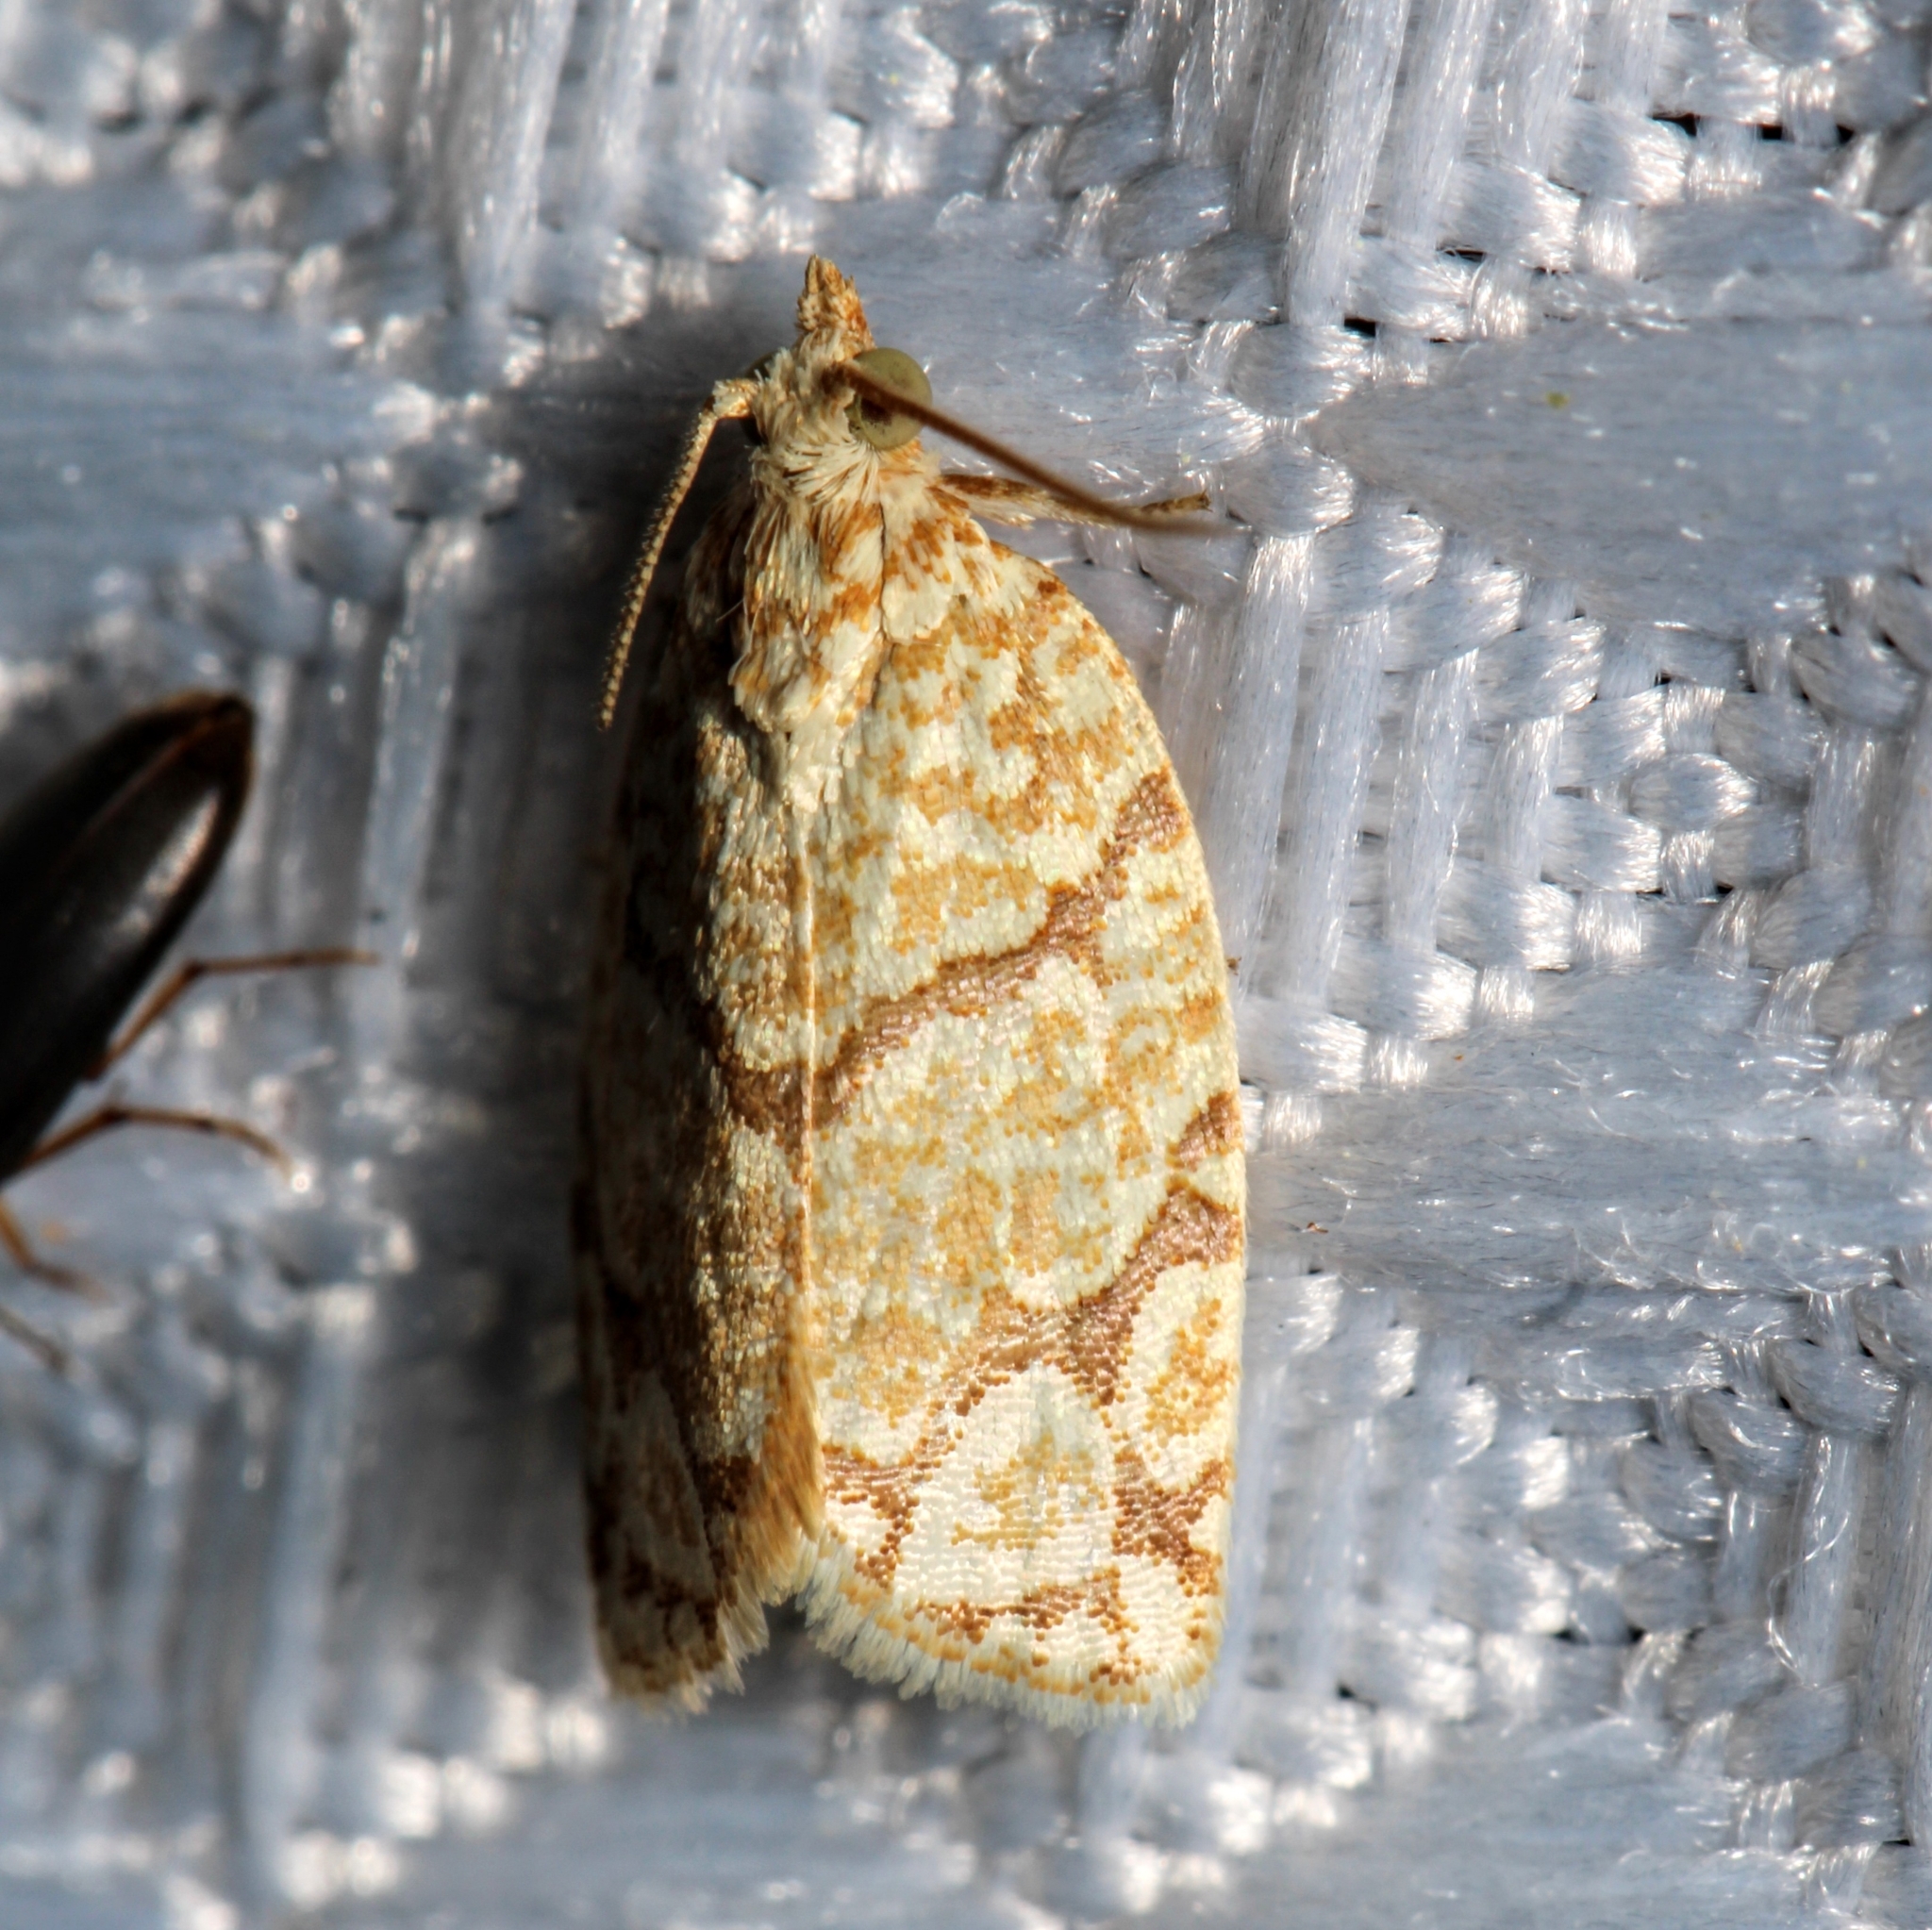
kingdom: Animalia
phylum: Arthropoda
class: Insecta
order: Lepidoptera
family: Tortricidae
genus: Argyrotaenia
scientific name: Argyrotaenia quercifoliana
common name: Yellow-winged oak leafroller moth
